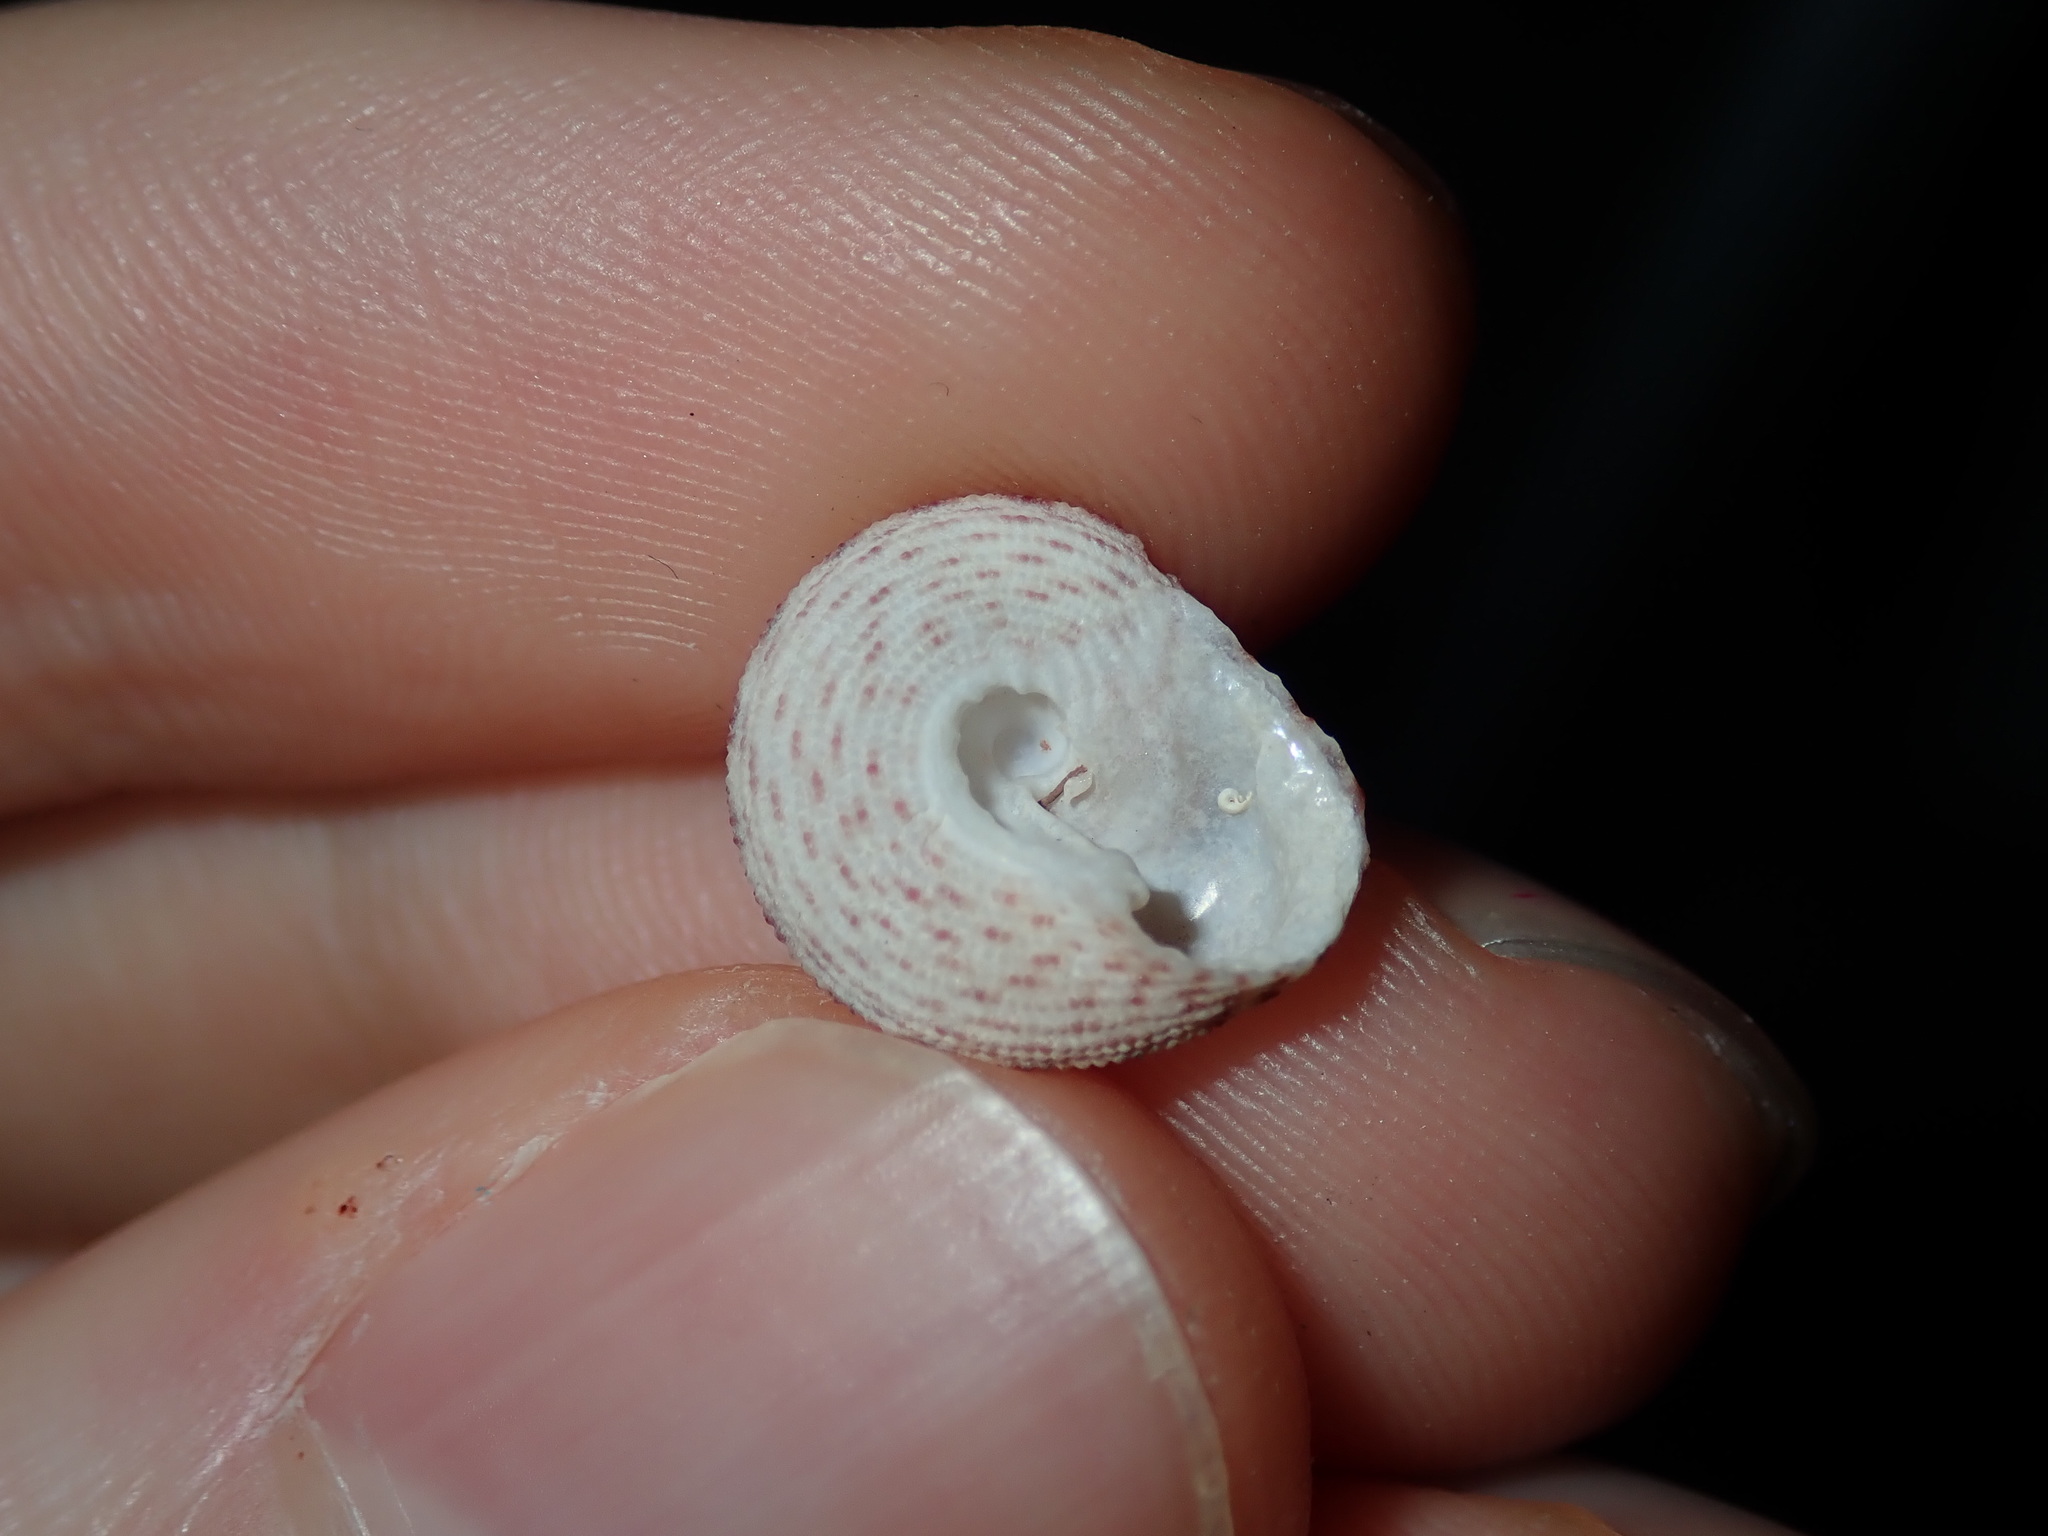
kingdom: Animalia
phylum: Mollusca
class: Gastropoda
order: Trochida
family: Trochidae
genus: Clanculus
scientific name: Clanculus floridus
